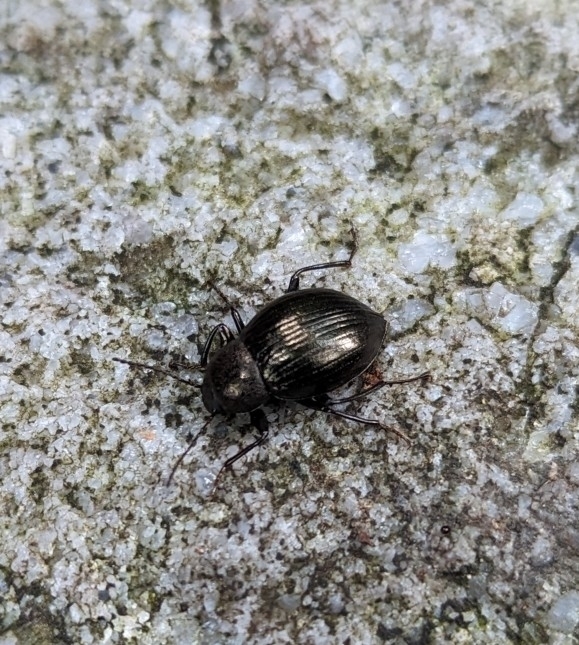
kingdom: Animalia
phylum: Arthropoda
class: Insecta
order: Coleoptera
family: Tenebrionidae
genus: Meracantha
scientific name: Meracantha contracta
